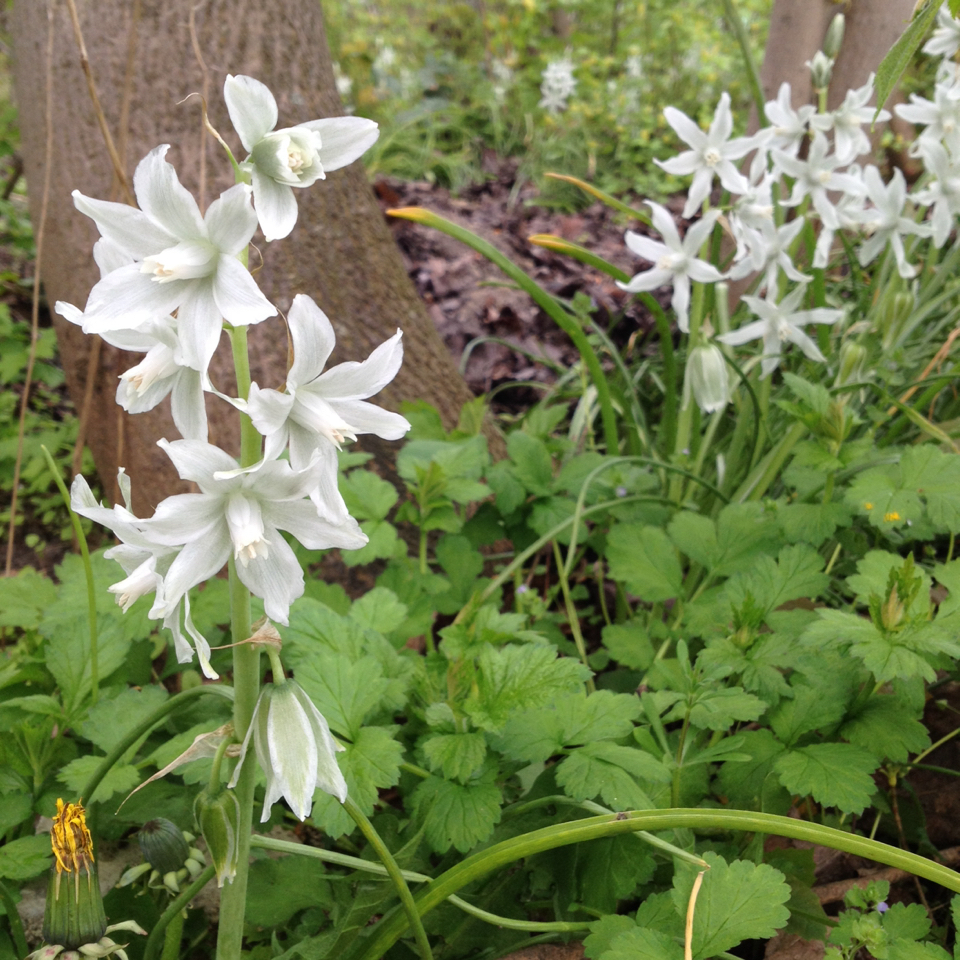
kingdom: Plantae
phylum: Tracheophyta
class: Liliopsida
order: Asparagales
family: Asparagaceae
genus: Ornithogalum
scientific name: Ornithogalum nutans
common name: Drooping star-of-bethlehem
